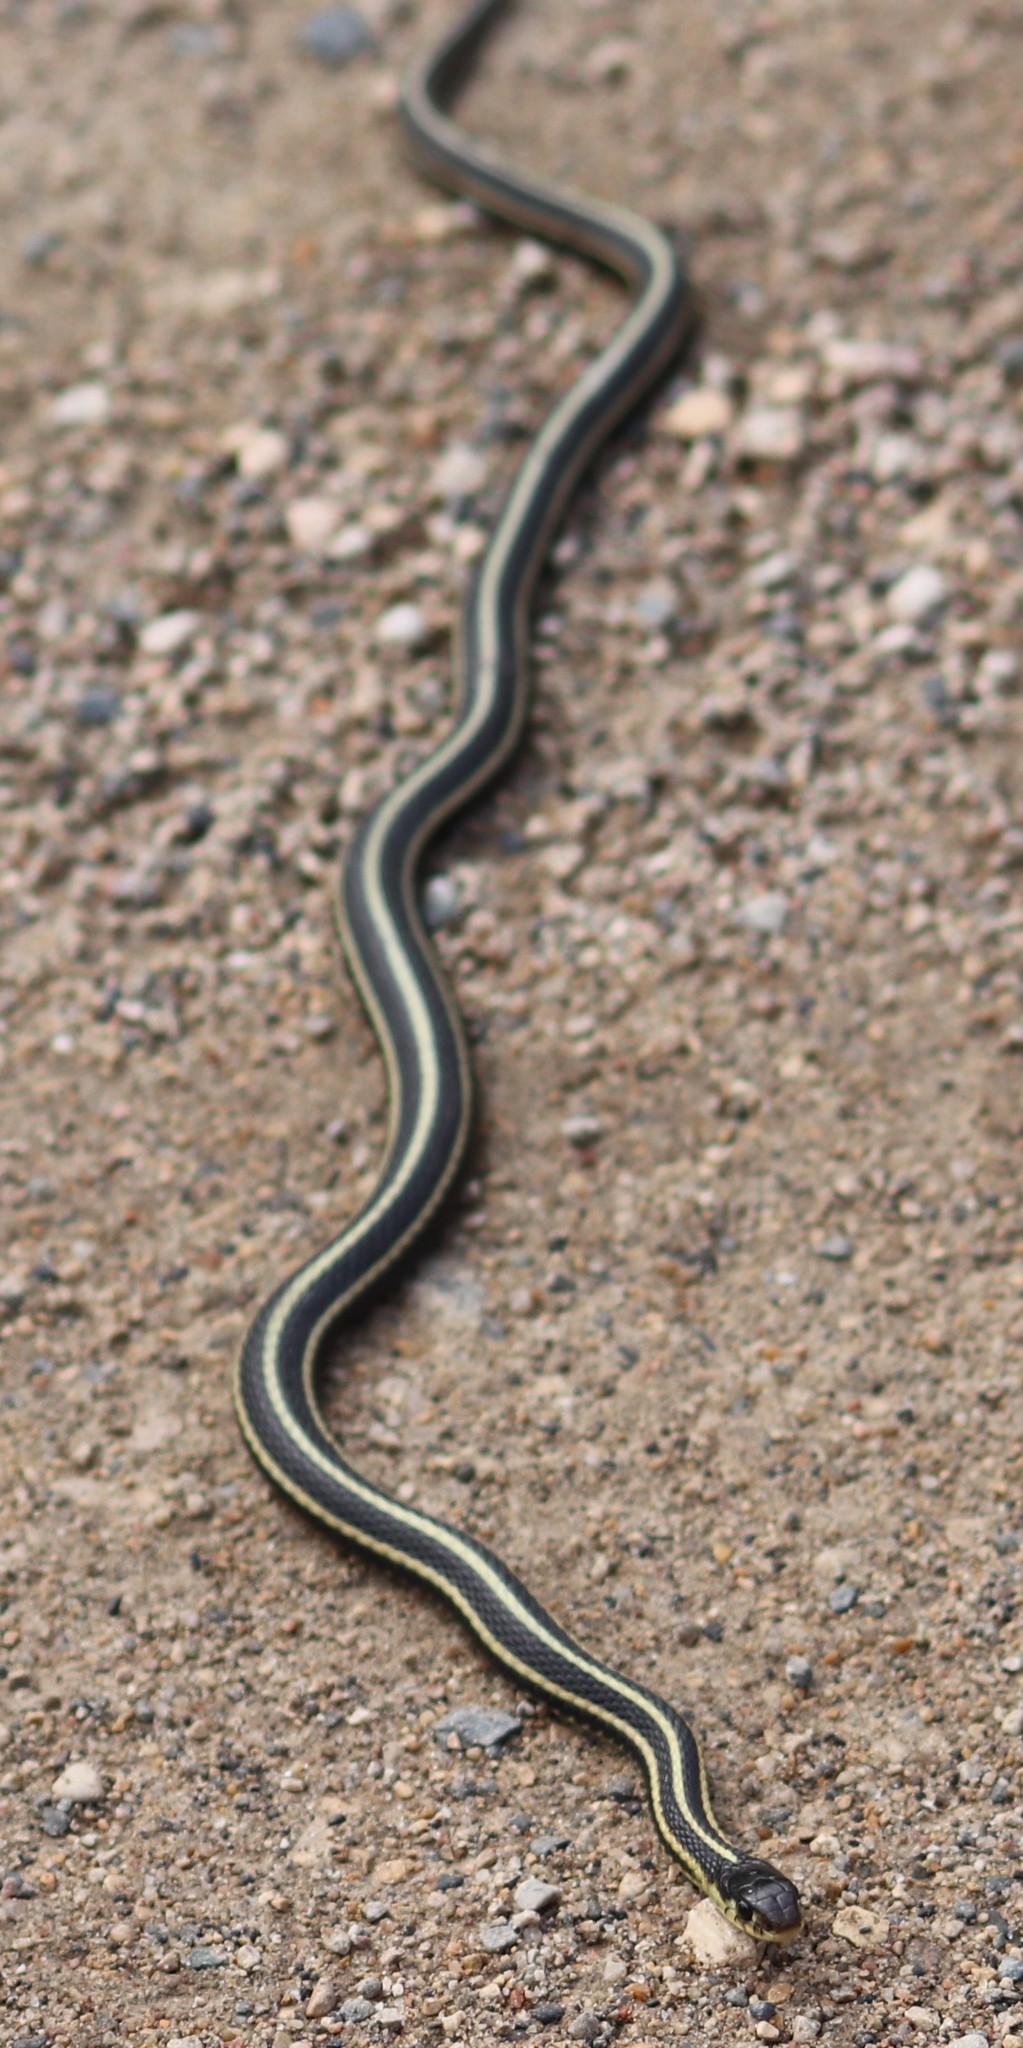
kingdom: Animalia
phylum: Chordata
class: Squamata
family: Colubridae
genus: Thamnophis
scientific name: Thamnophis sirtalis
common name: Common garter snake
